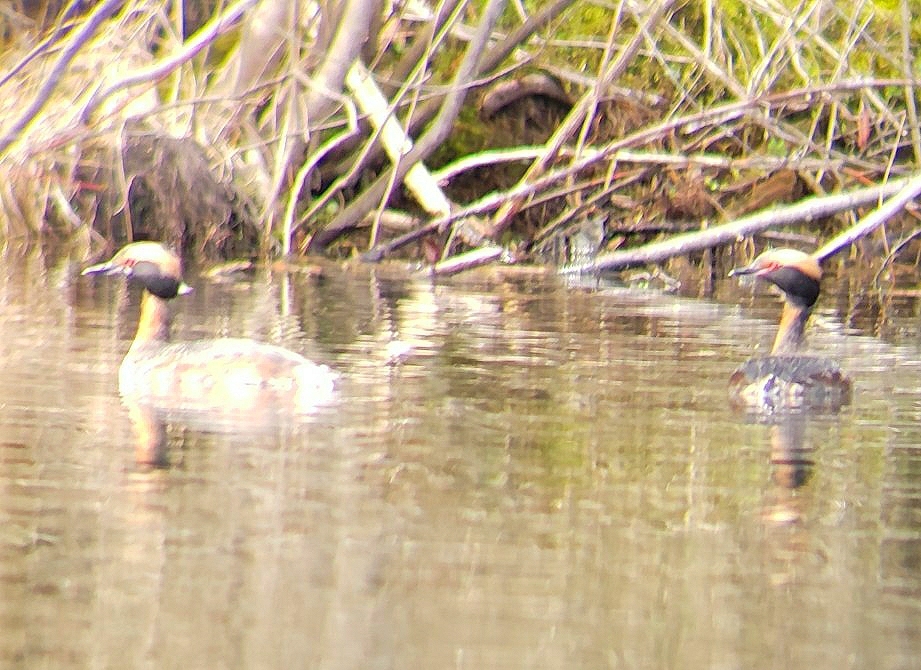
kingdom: Animalia
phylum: Chordata
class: Aves
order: Podicipediformes
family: Podicipedidae
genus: Podiceps
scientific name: Podiceps auritus
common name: Horned grebe
